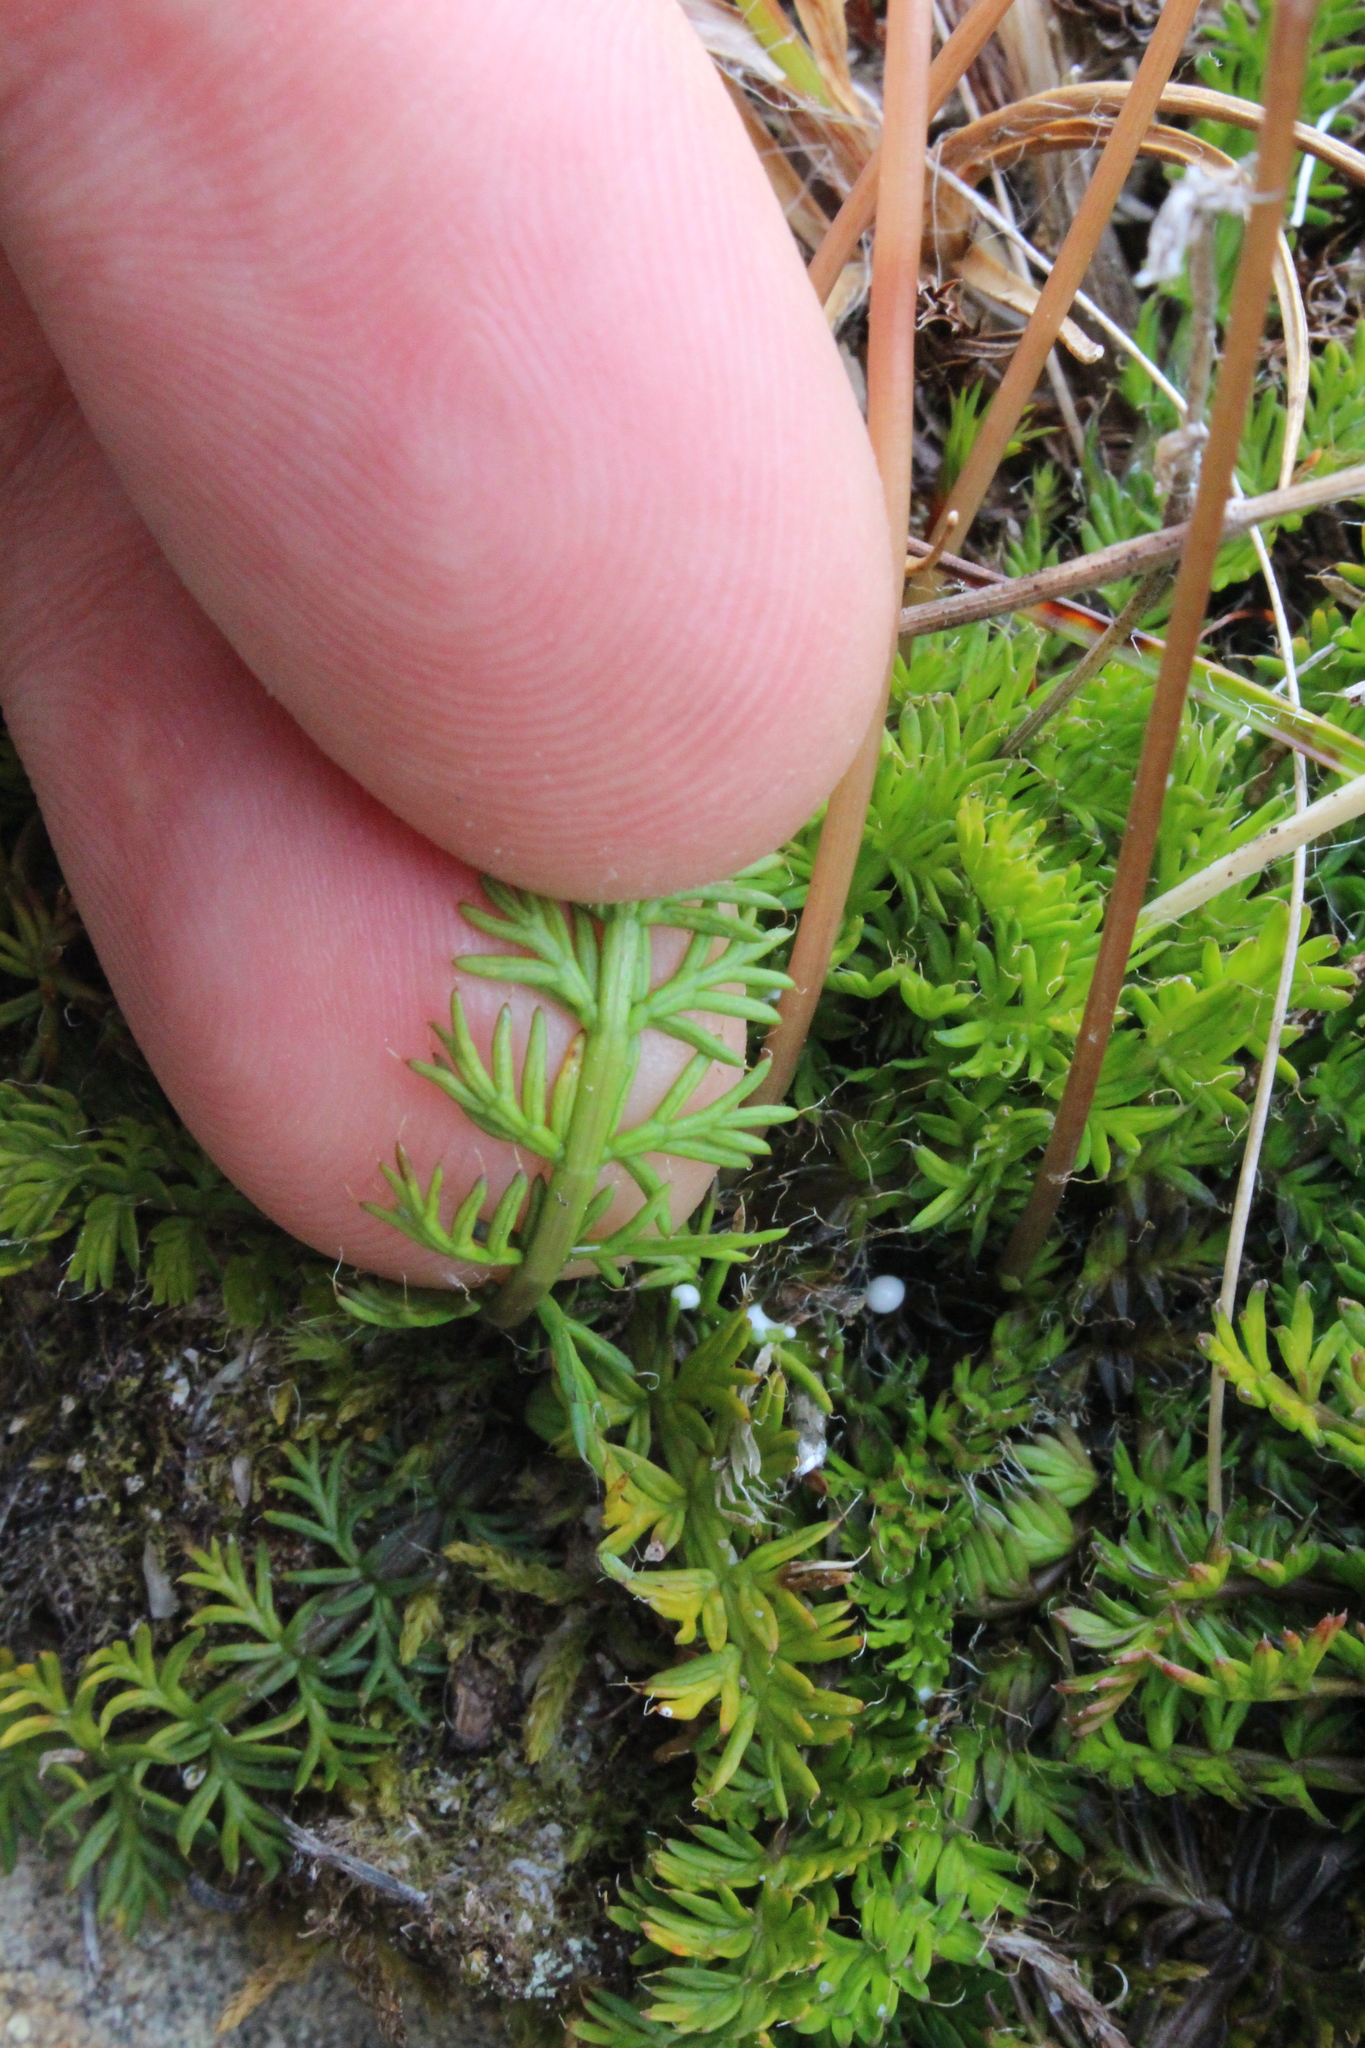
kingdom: Plantae
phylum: Tracheophyta
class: Magnoliopsida
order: Apiales
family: Apiaceae
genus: Anisotome
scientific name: Anisotome flexuosa
